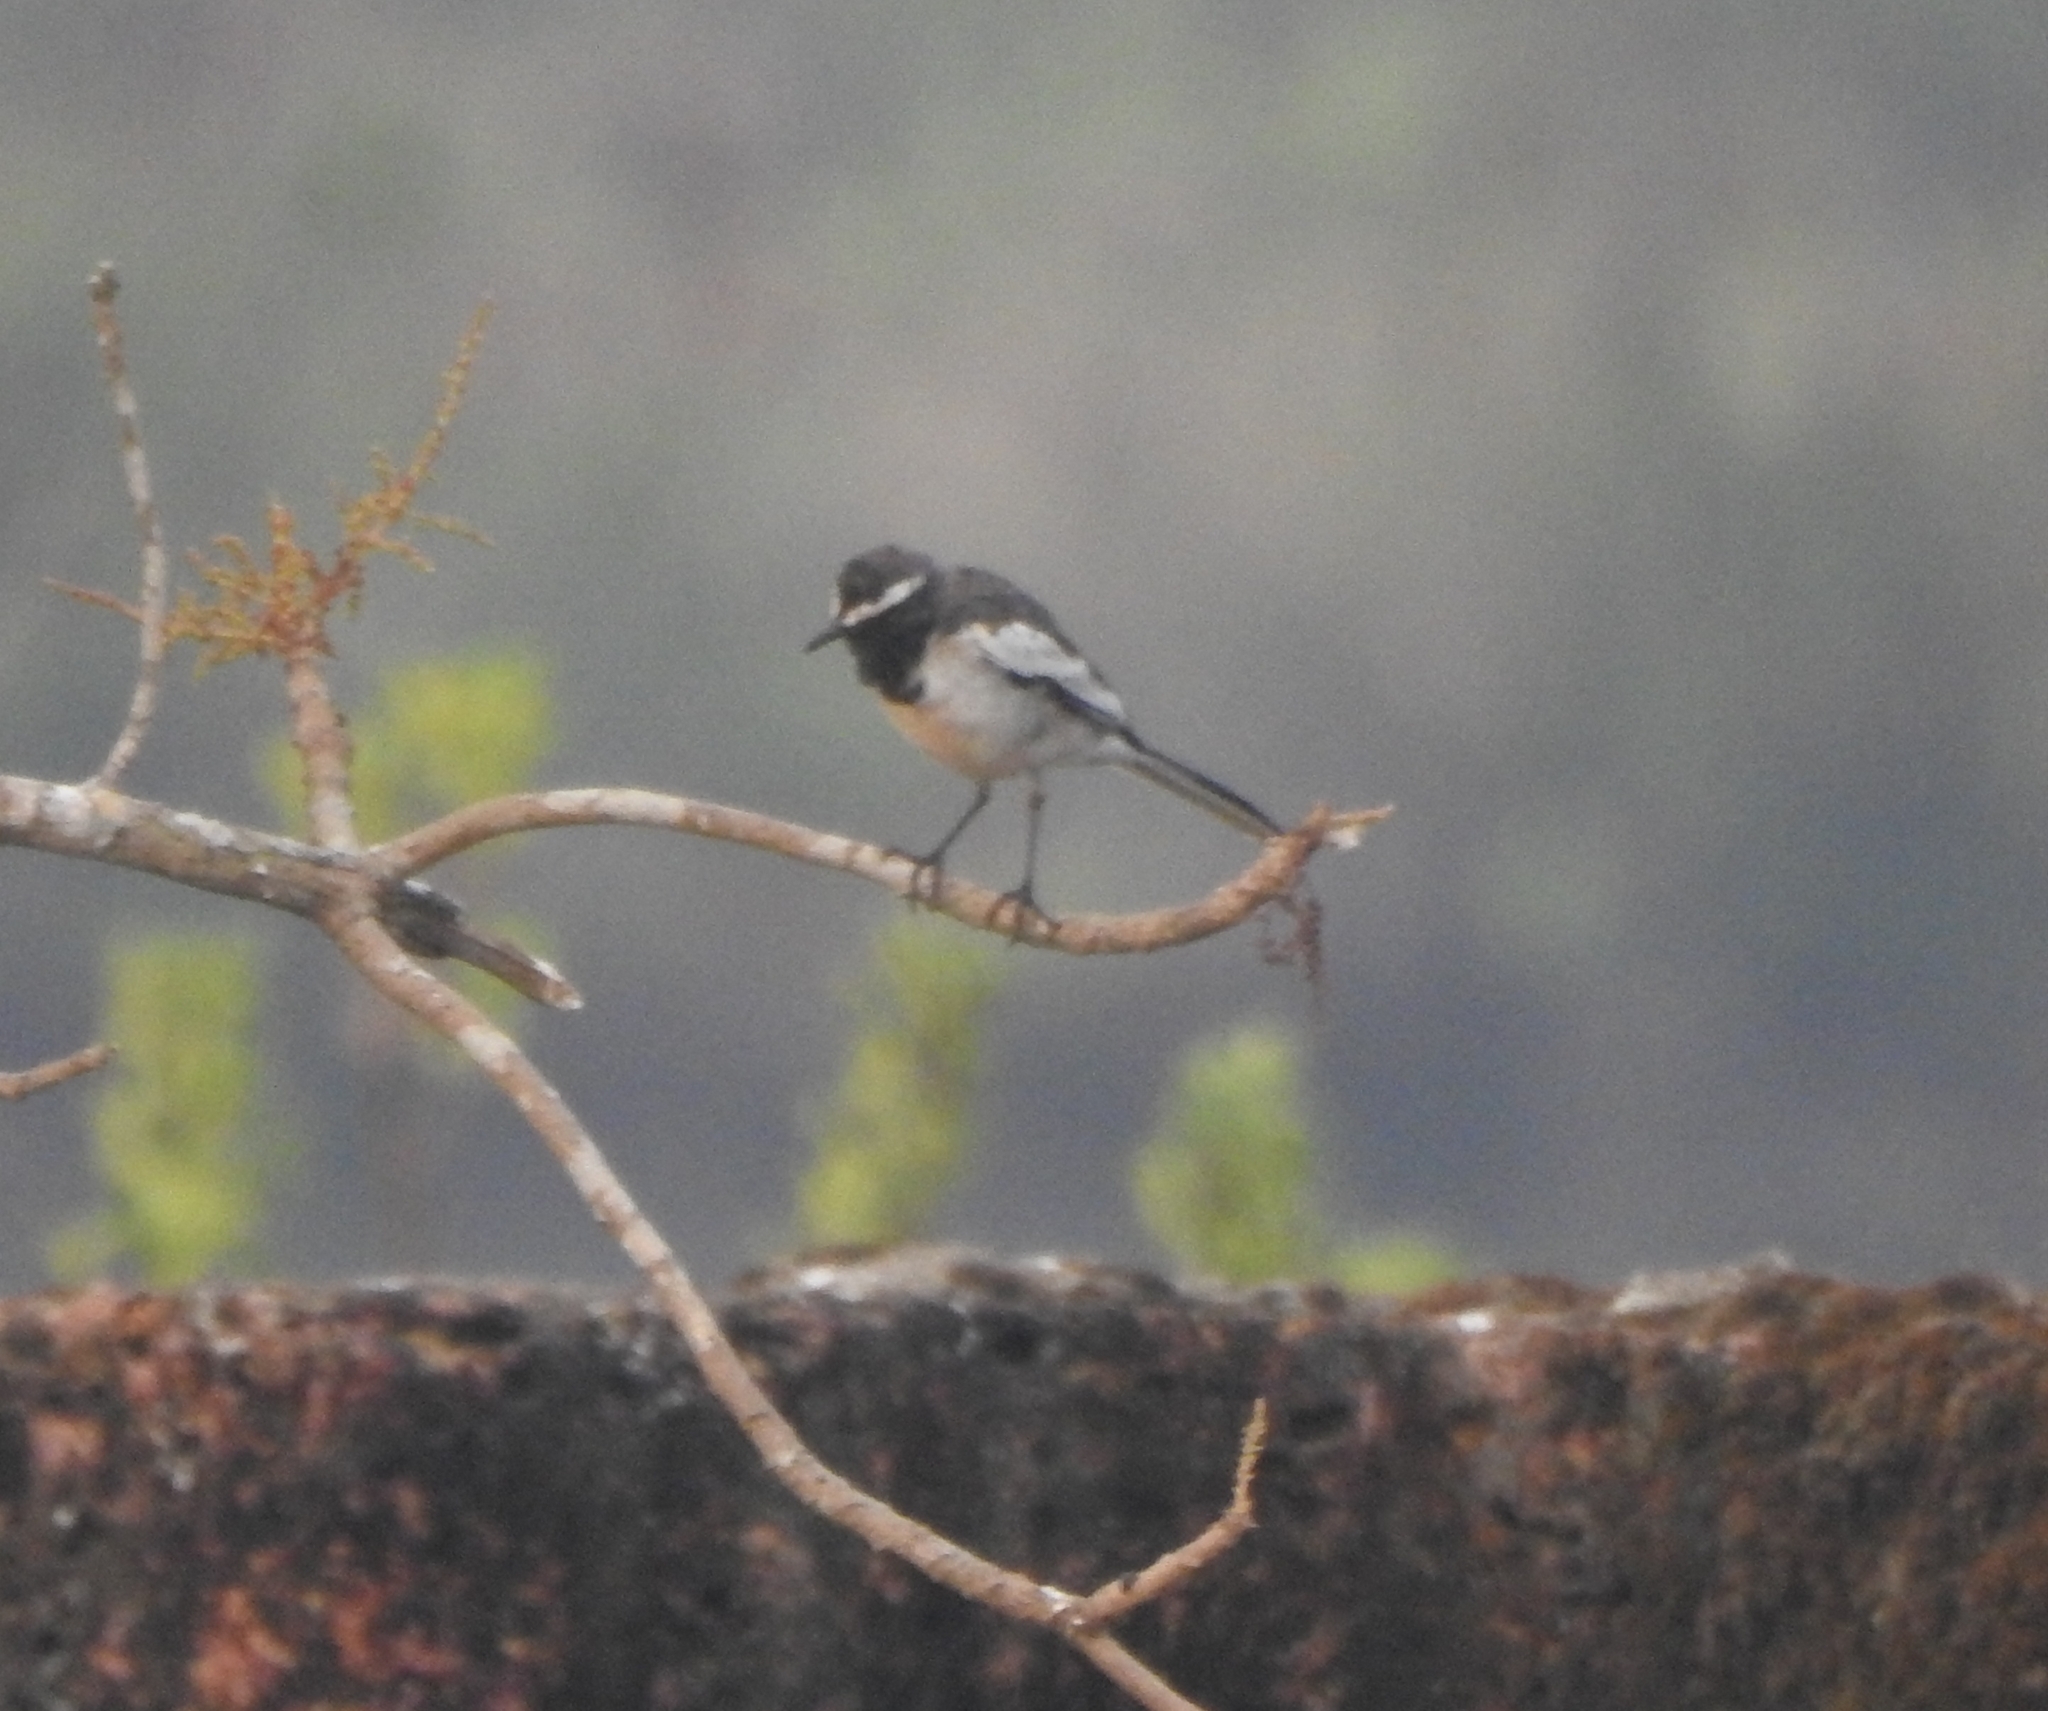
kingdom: Animalia
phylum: Chordata
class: Aves
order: Passeriformes
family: Motacillidae
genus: Motacilla
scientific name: Motacilla maderaspatensis
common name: White-browed wagtail
